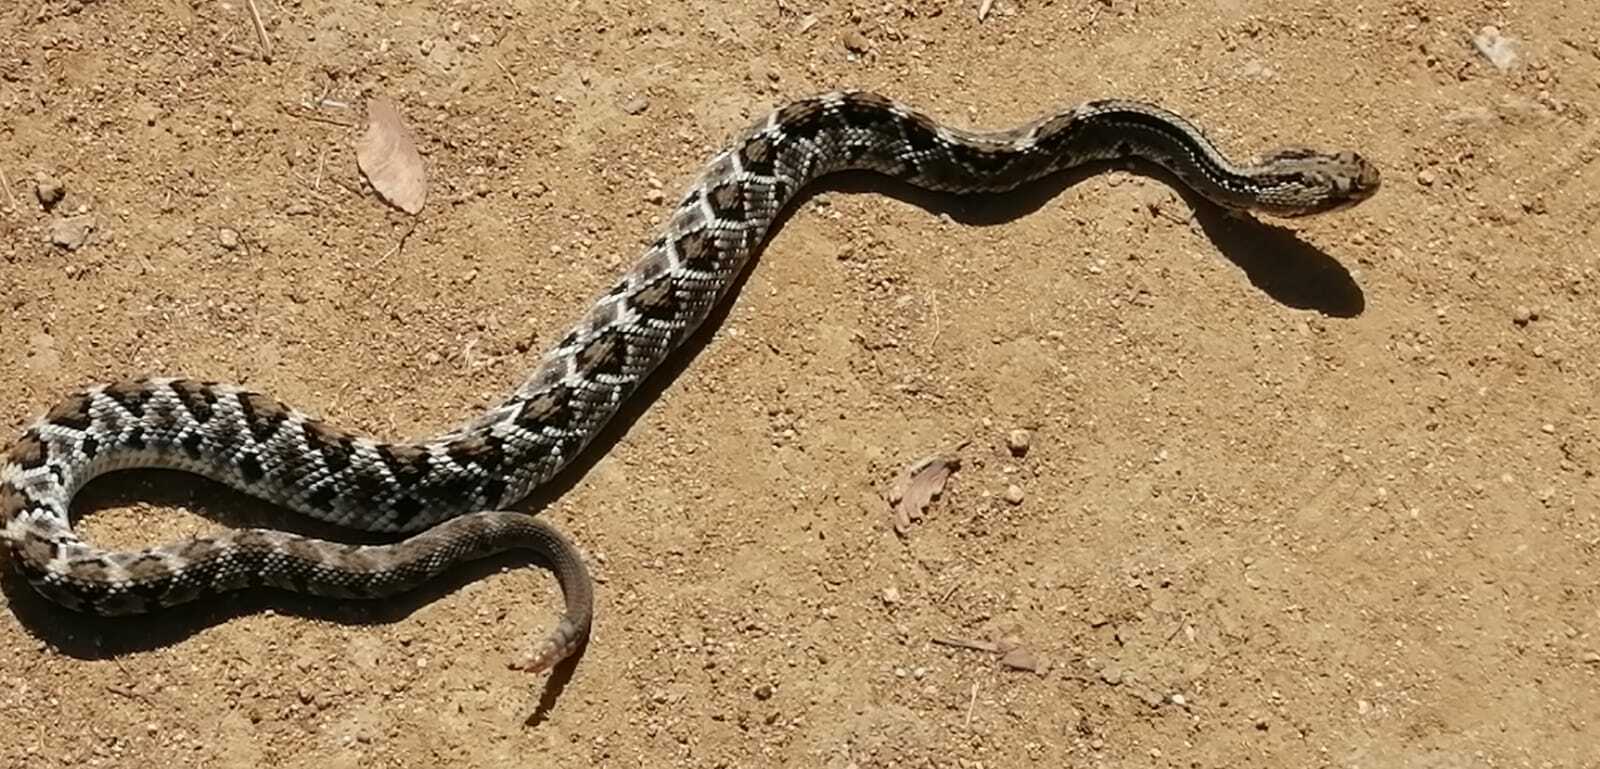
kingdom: Animalia
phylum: Chordata
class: Squamata
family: Viperidae
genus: Crotalus
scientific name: Crotalus ehecatl
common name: Tehuantepec isthmus neotropical rattlesnake
